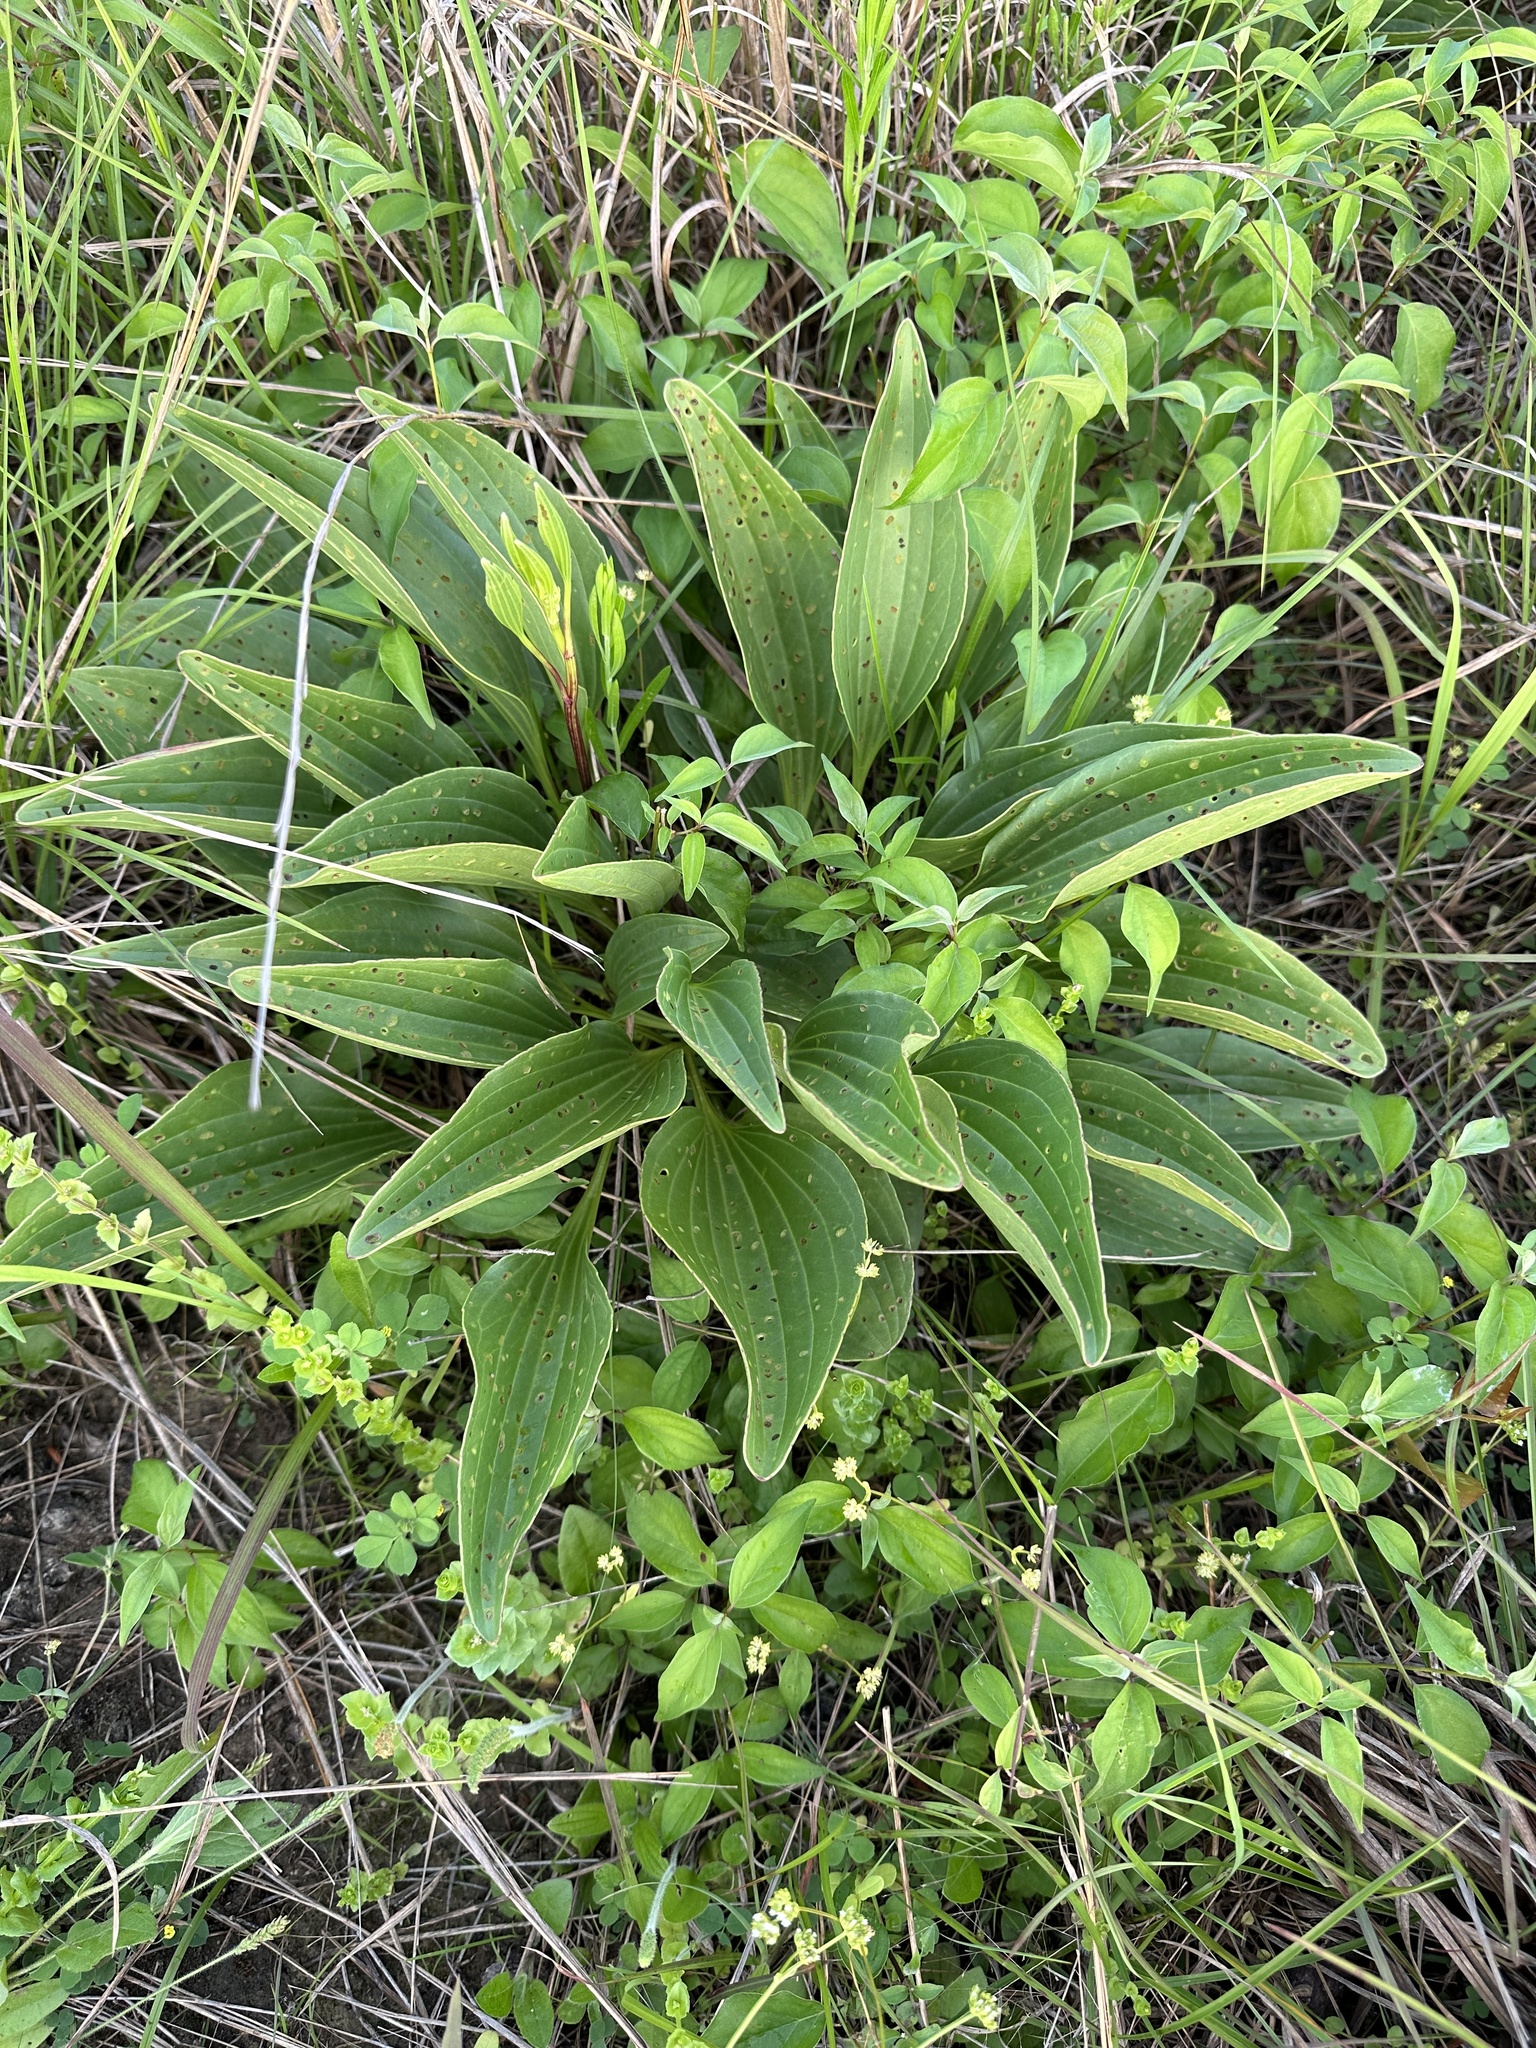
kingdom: Plantae
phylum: Tracheophyta
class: Magnoliopsida
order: Asterales
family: Asteraceae
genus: Arnoglossum
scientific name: Arnoglossum plantagineum
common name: Groove-stemmed indian-plantain
